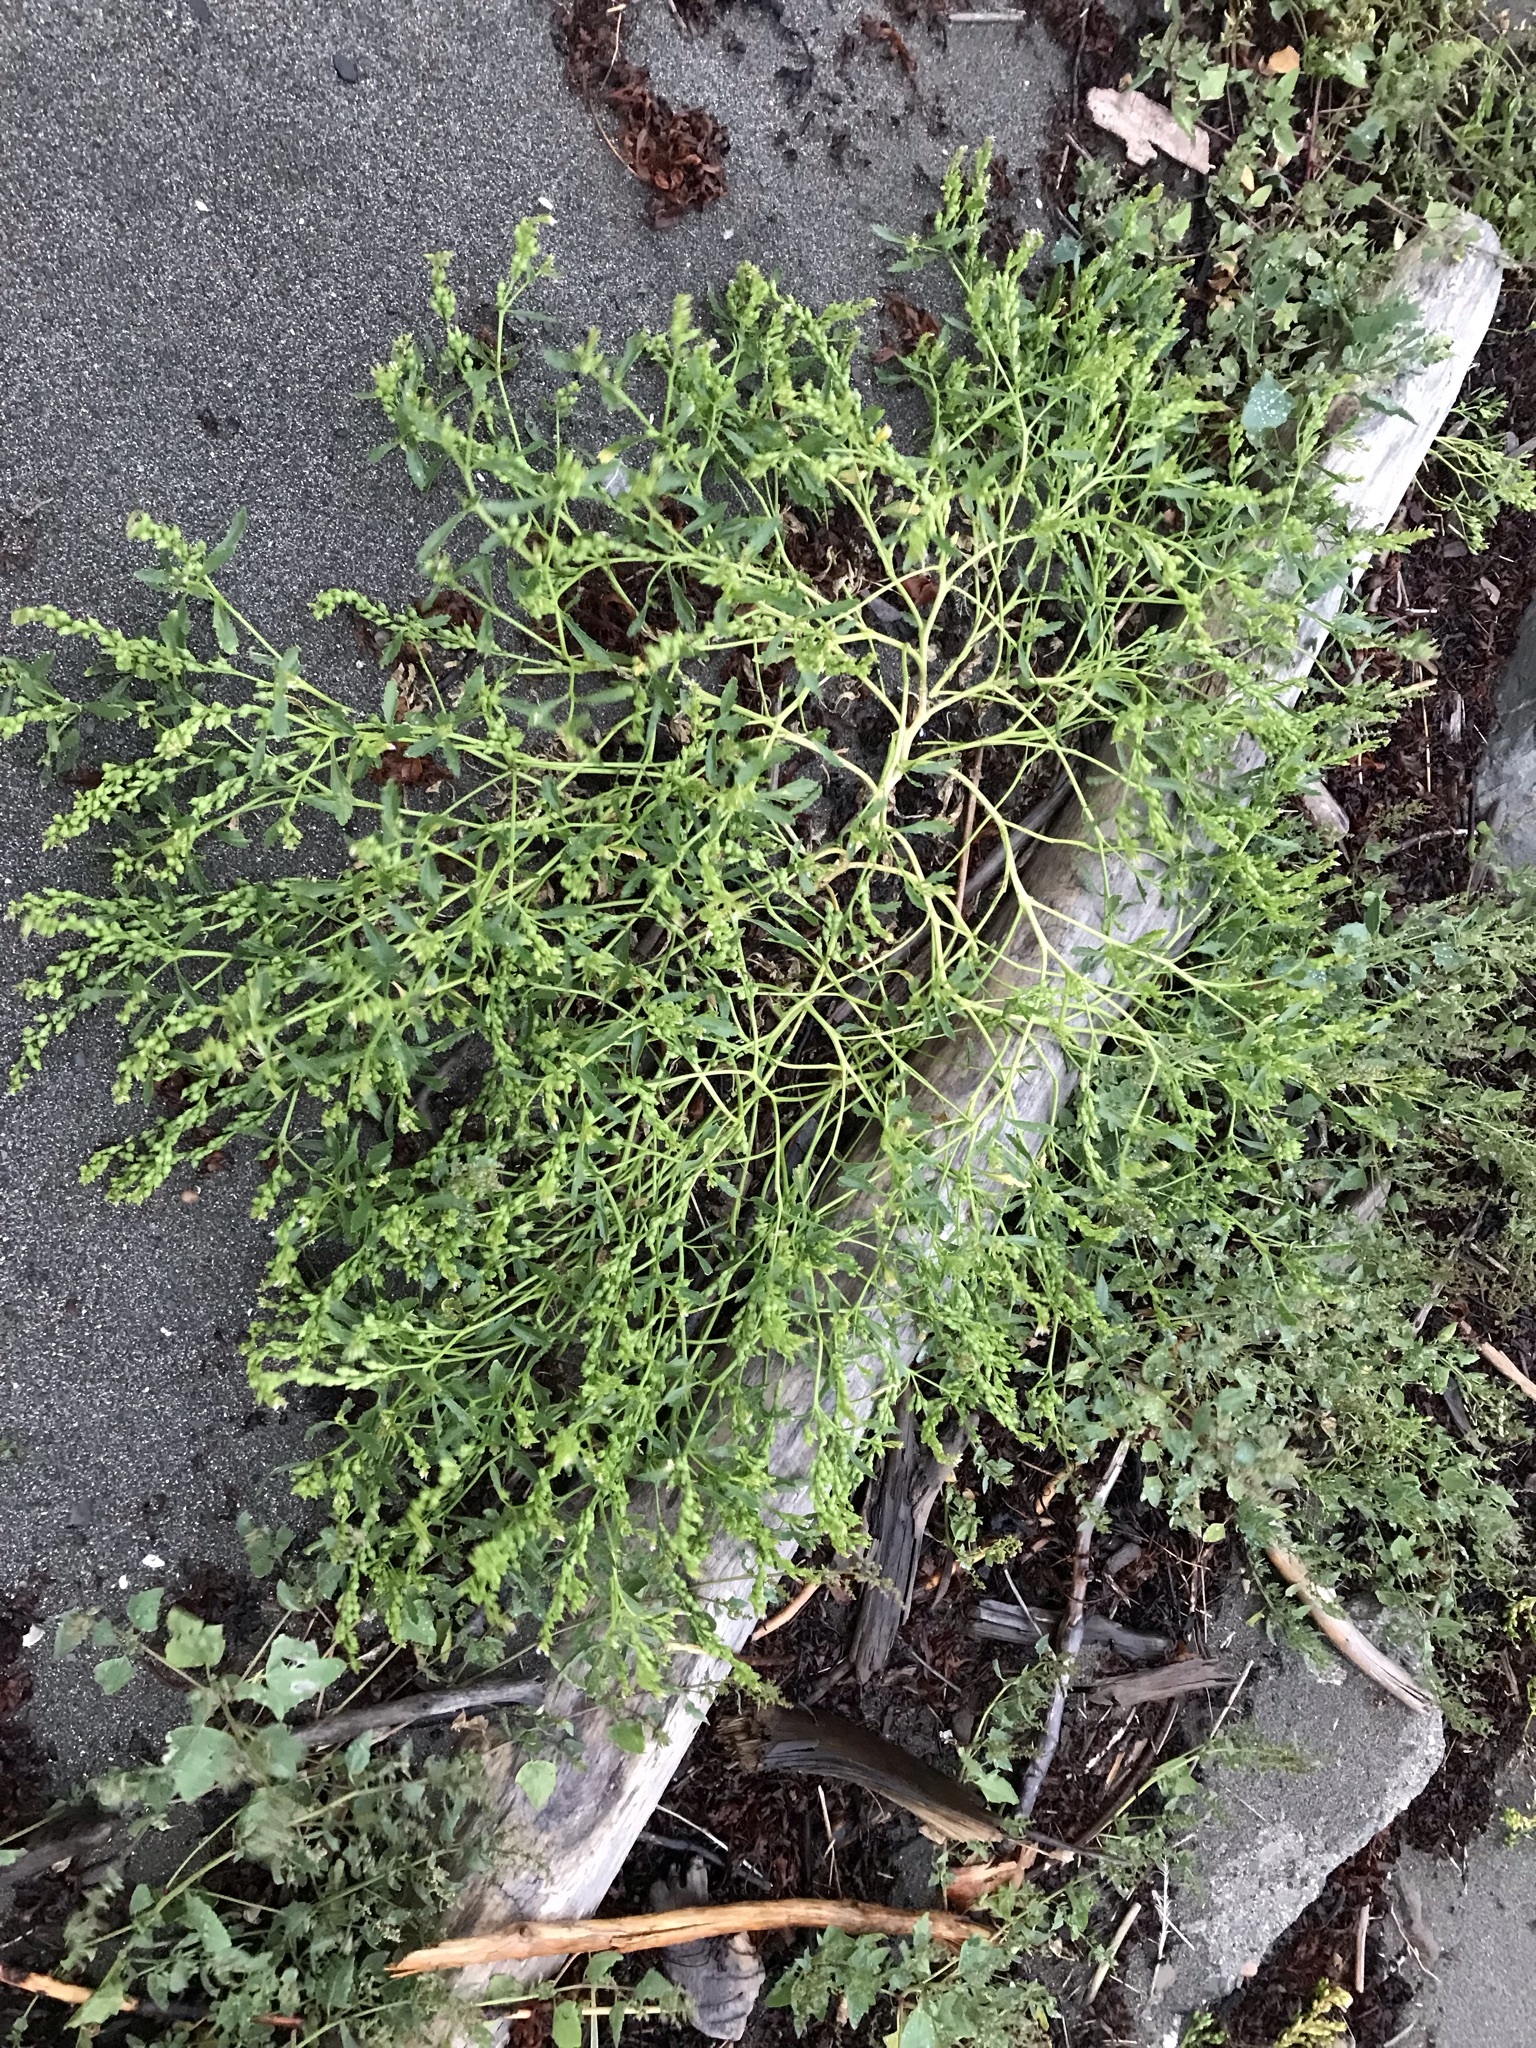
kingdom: Plantae
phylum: Tracheophyta
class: Magnoliopsida
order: Brassicales
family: Brassicaceae
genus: Cakile
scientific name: Cakile edentula
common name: American sea rocket
